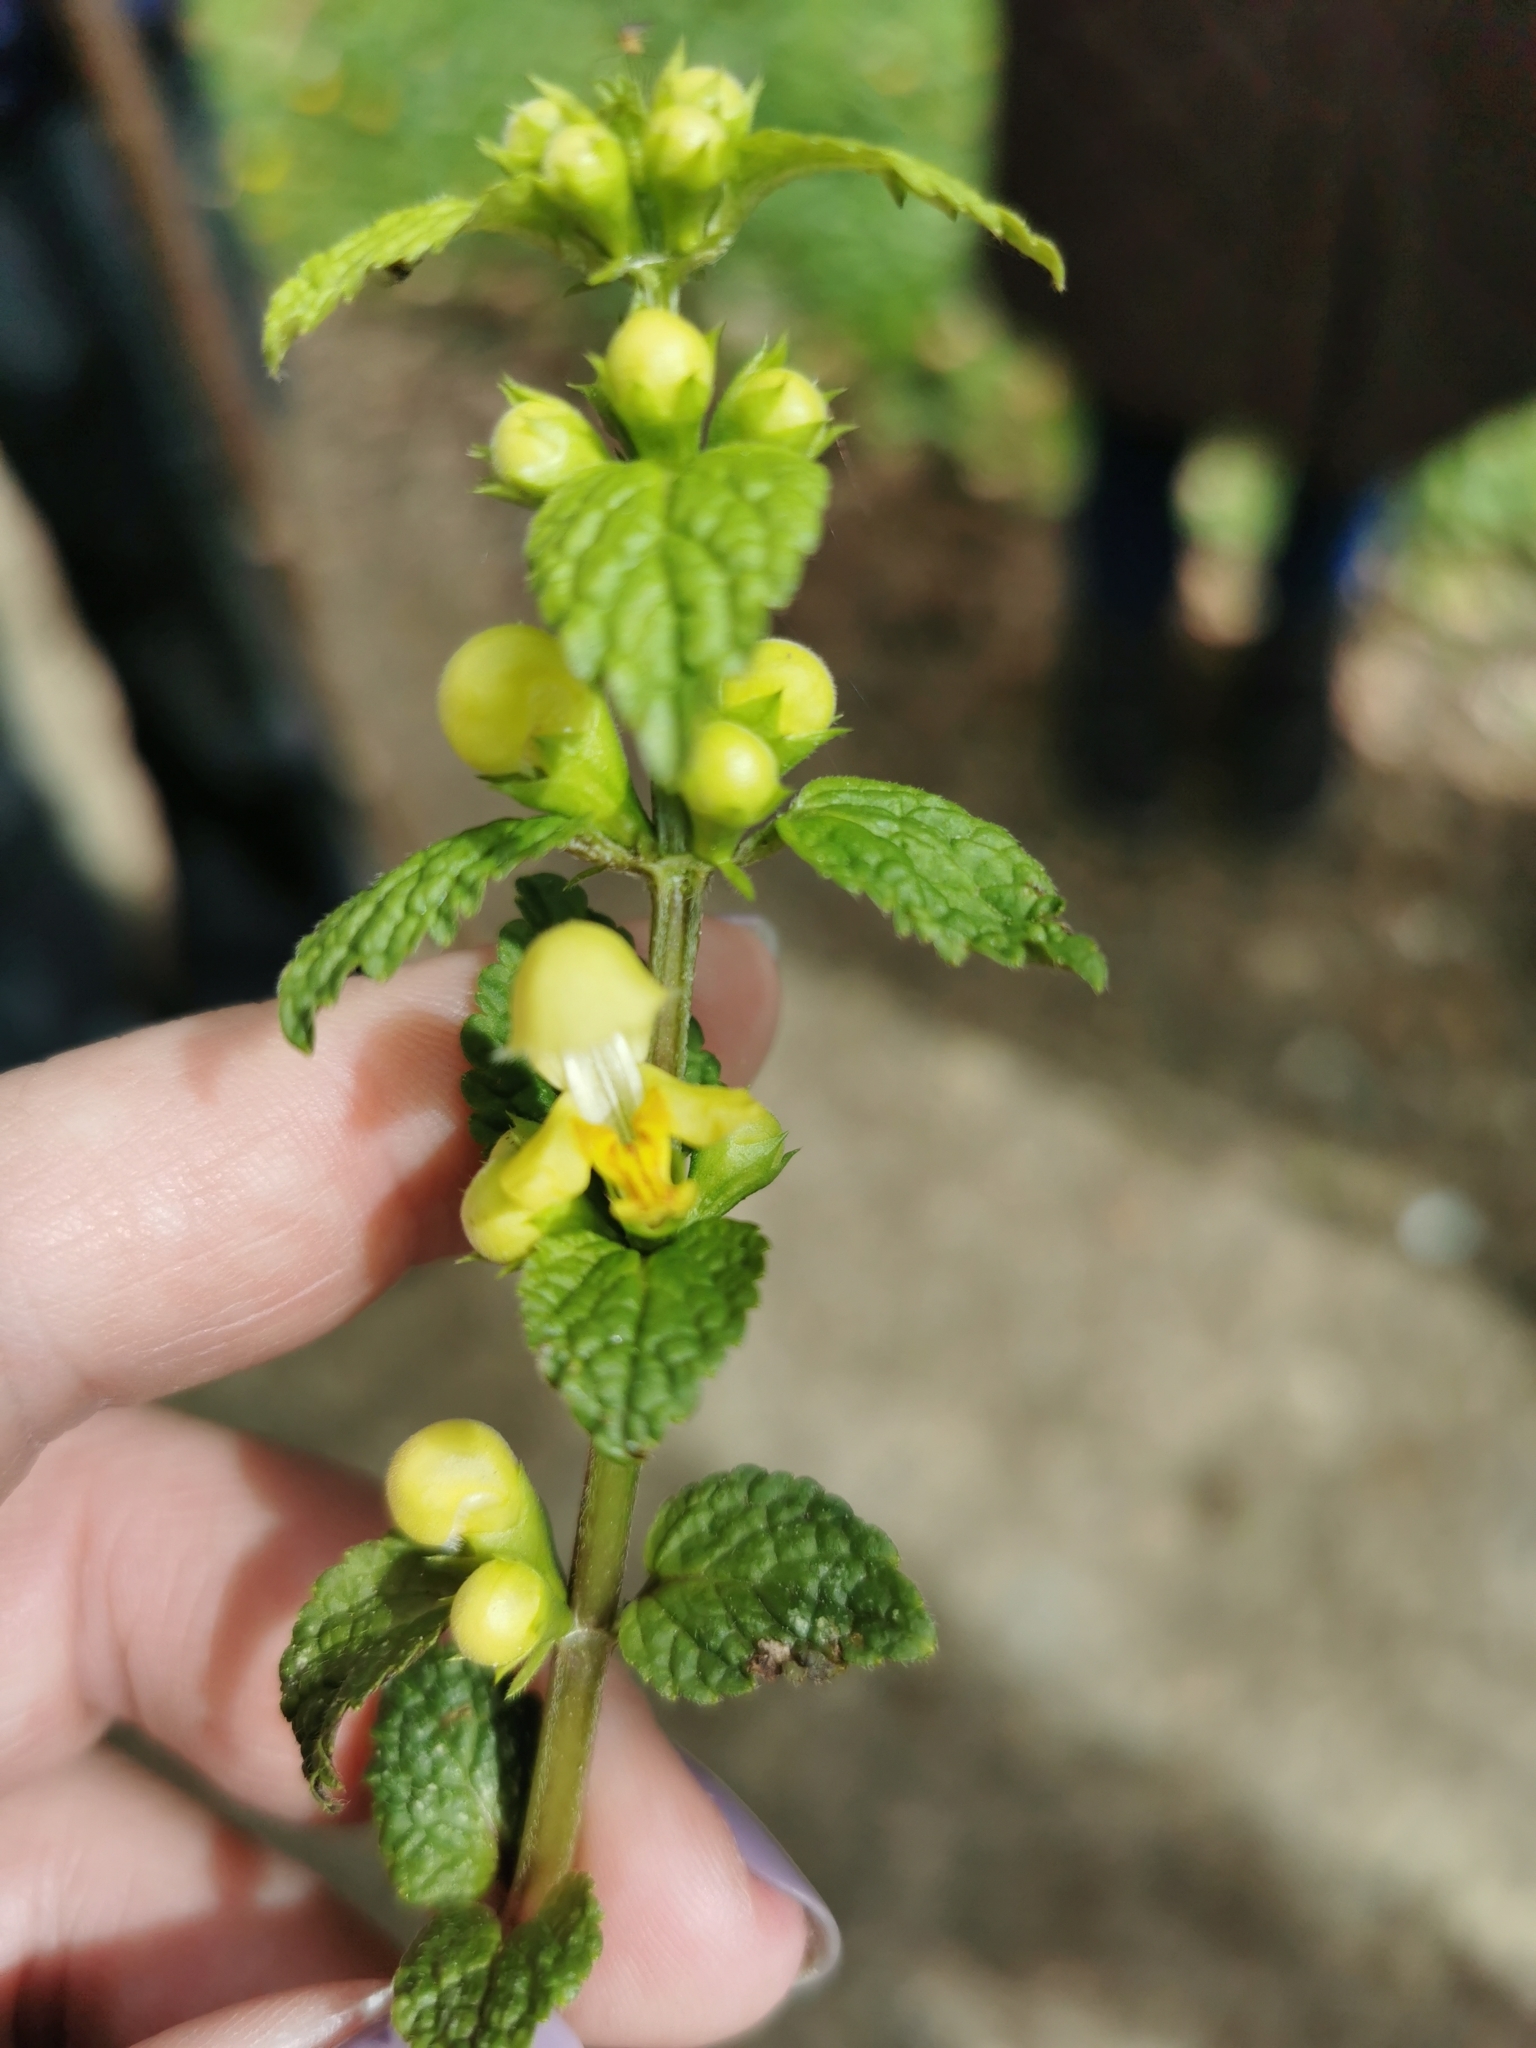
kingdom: Plantae
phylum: Tracheophyta
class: Magnoliopsida
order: Lamiales
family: Lamiaceae
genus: Lamium
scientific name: Lamium galeobdolon
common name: Yellow archangel
